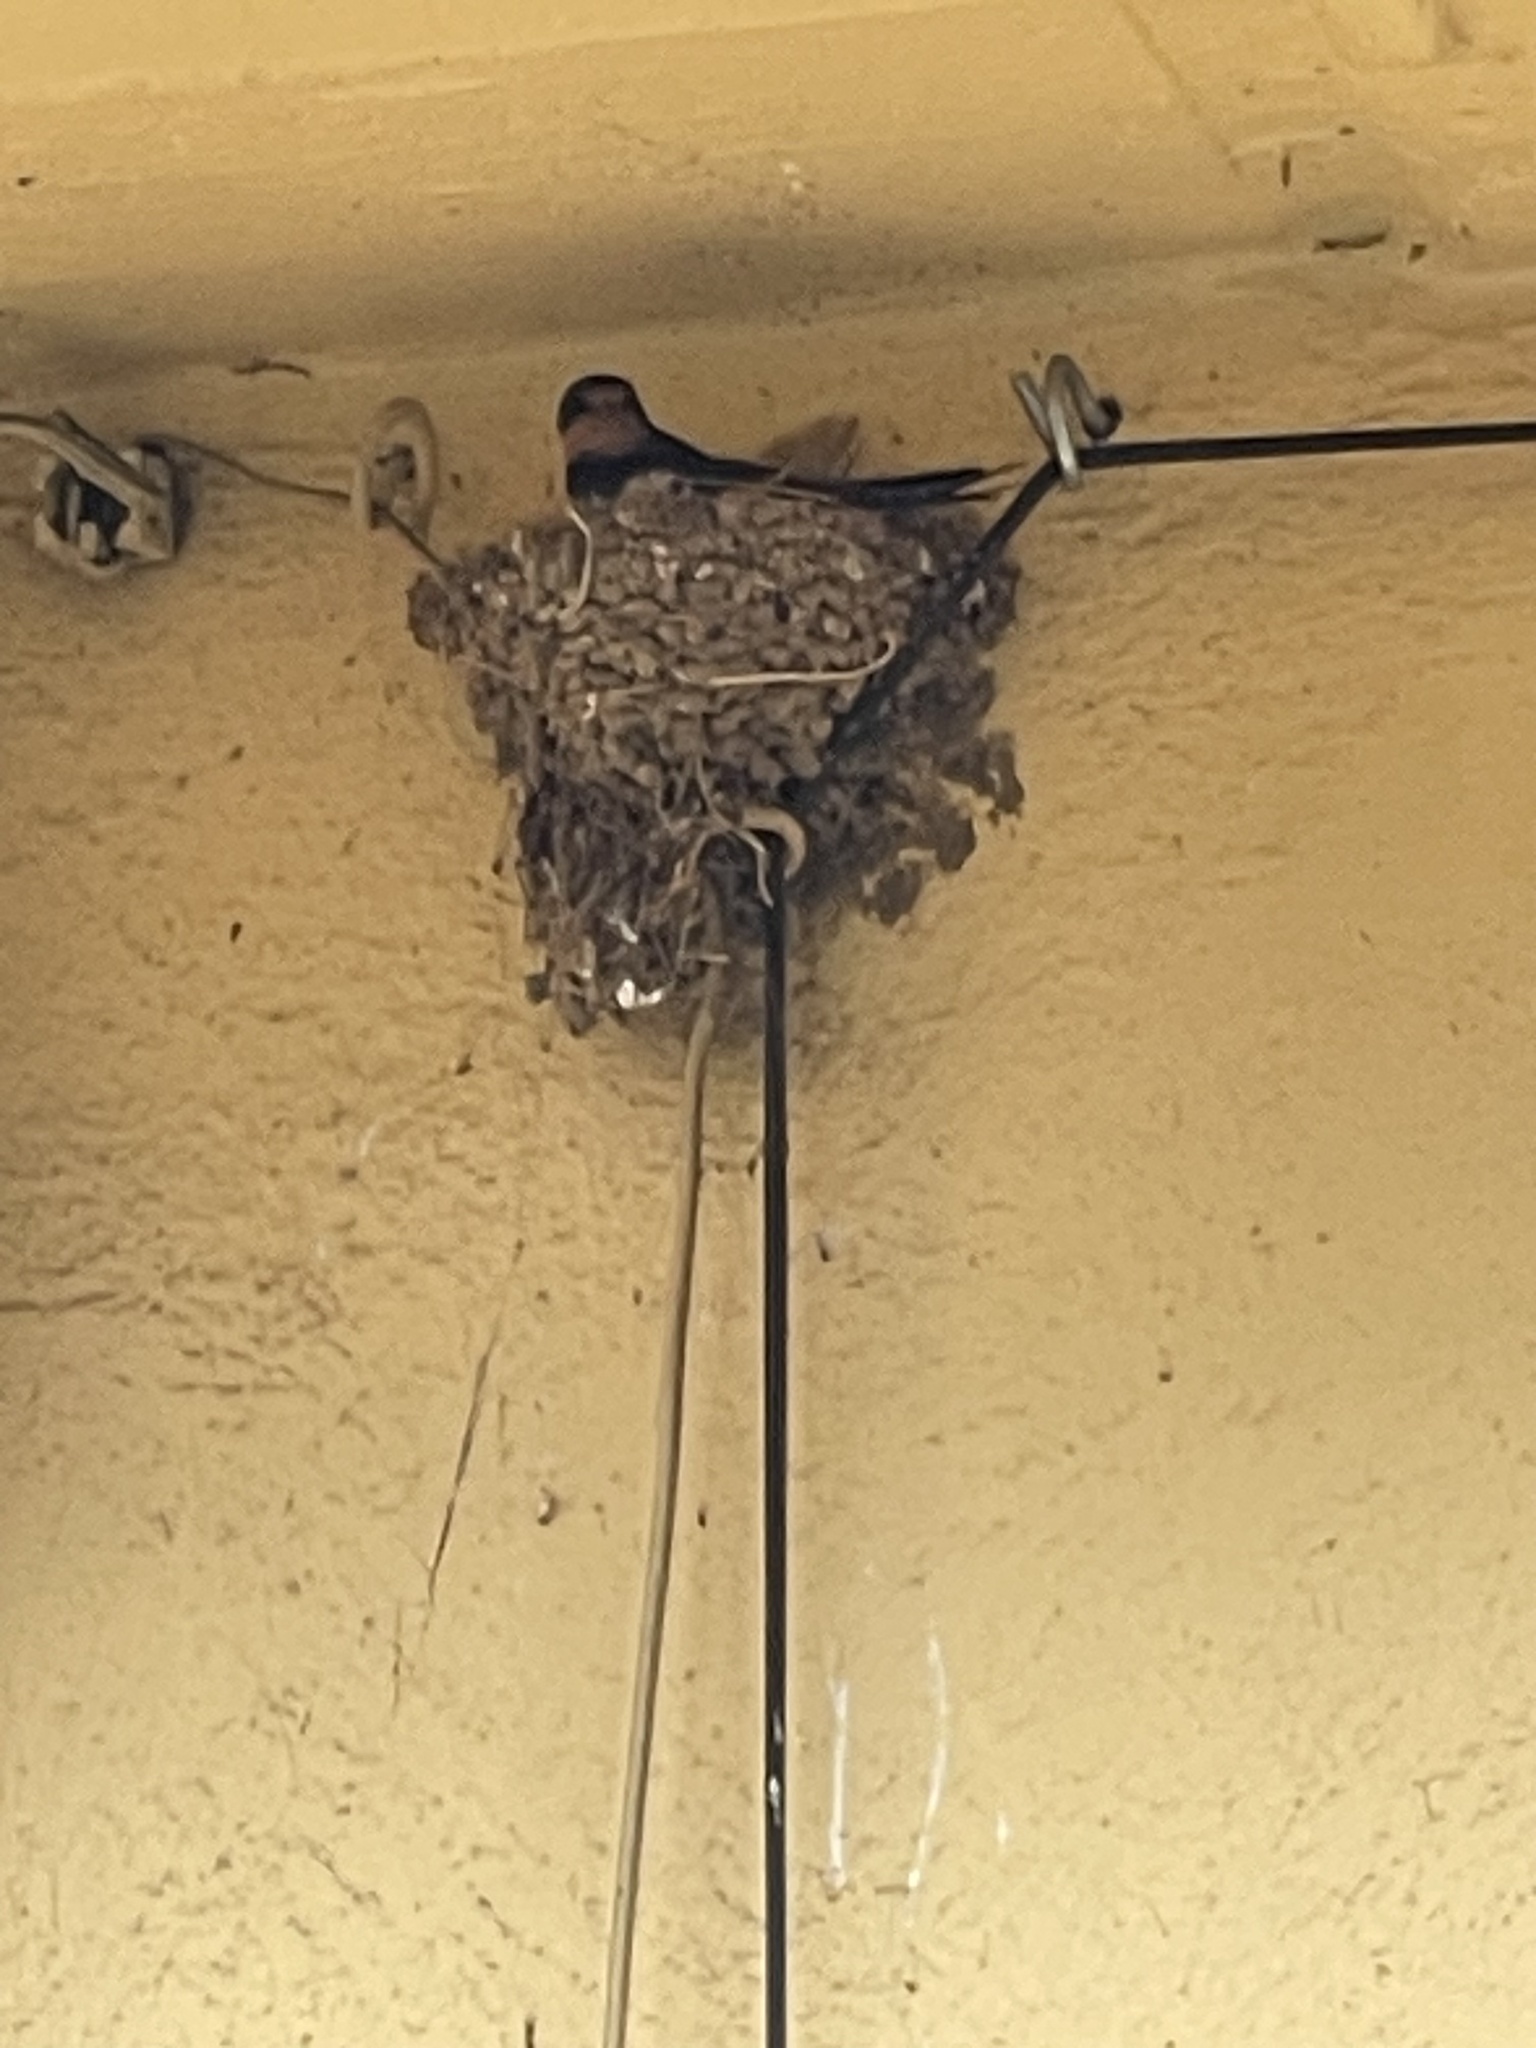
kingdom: Animalia
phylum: Chordata
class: Aves
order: Passeriformes
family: Hirundinidae
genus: Hirundo
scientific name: Hirundo rustica
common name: Barn swallow
